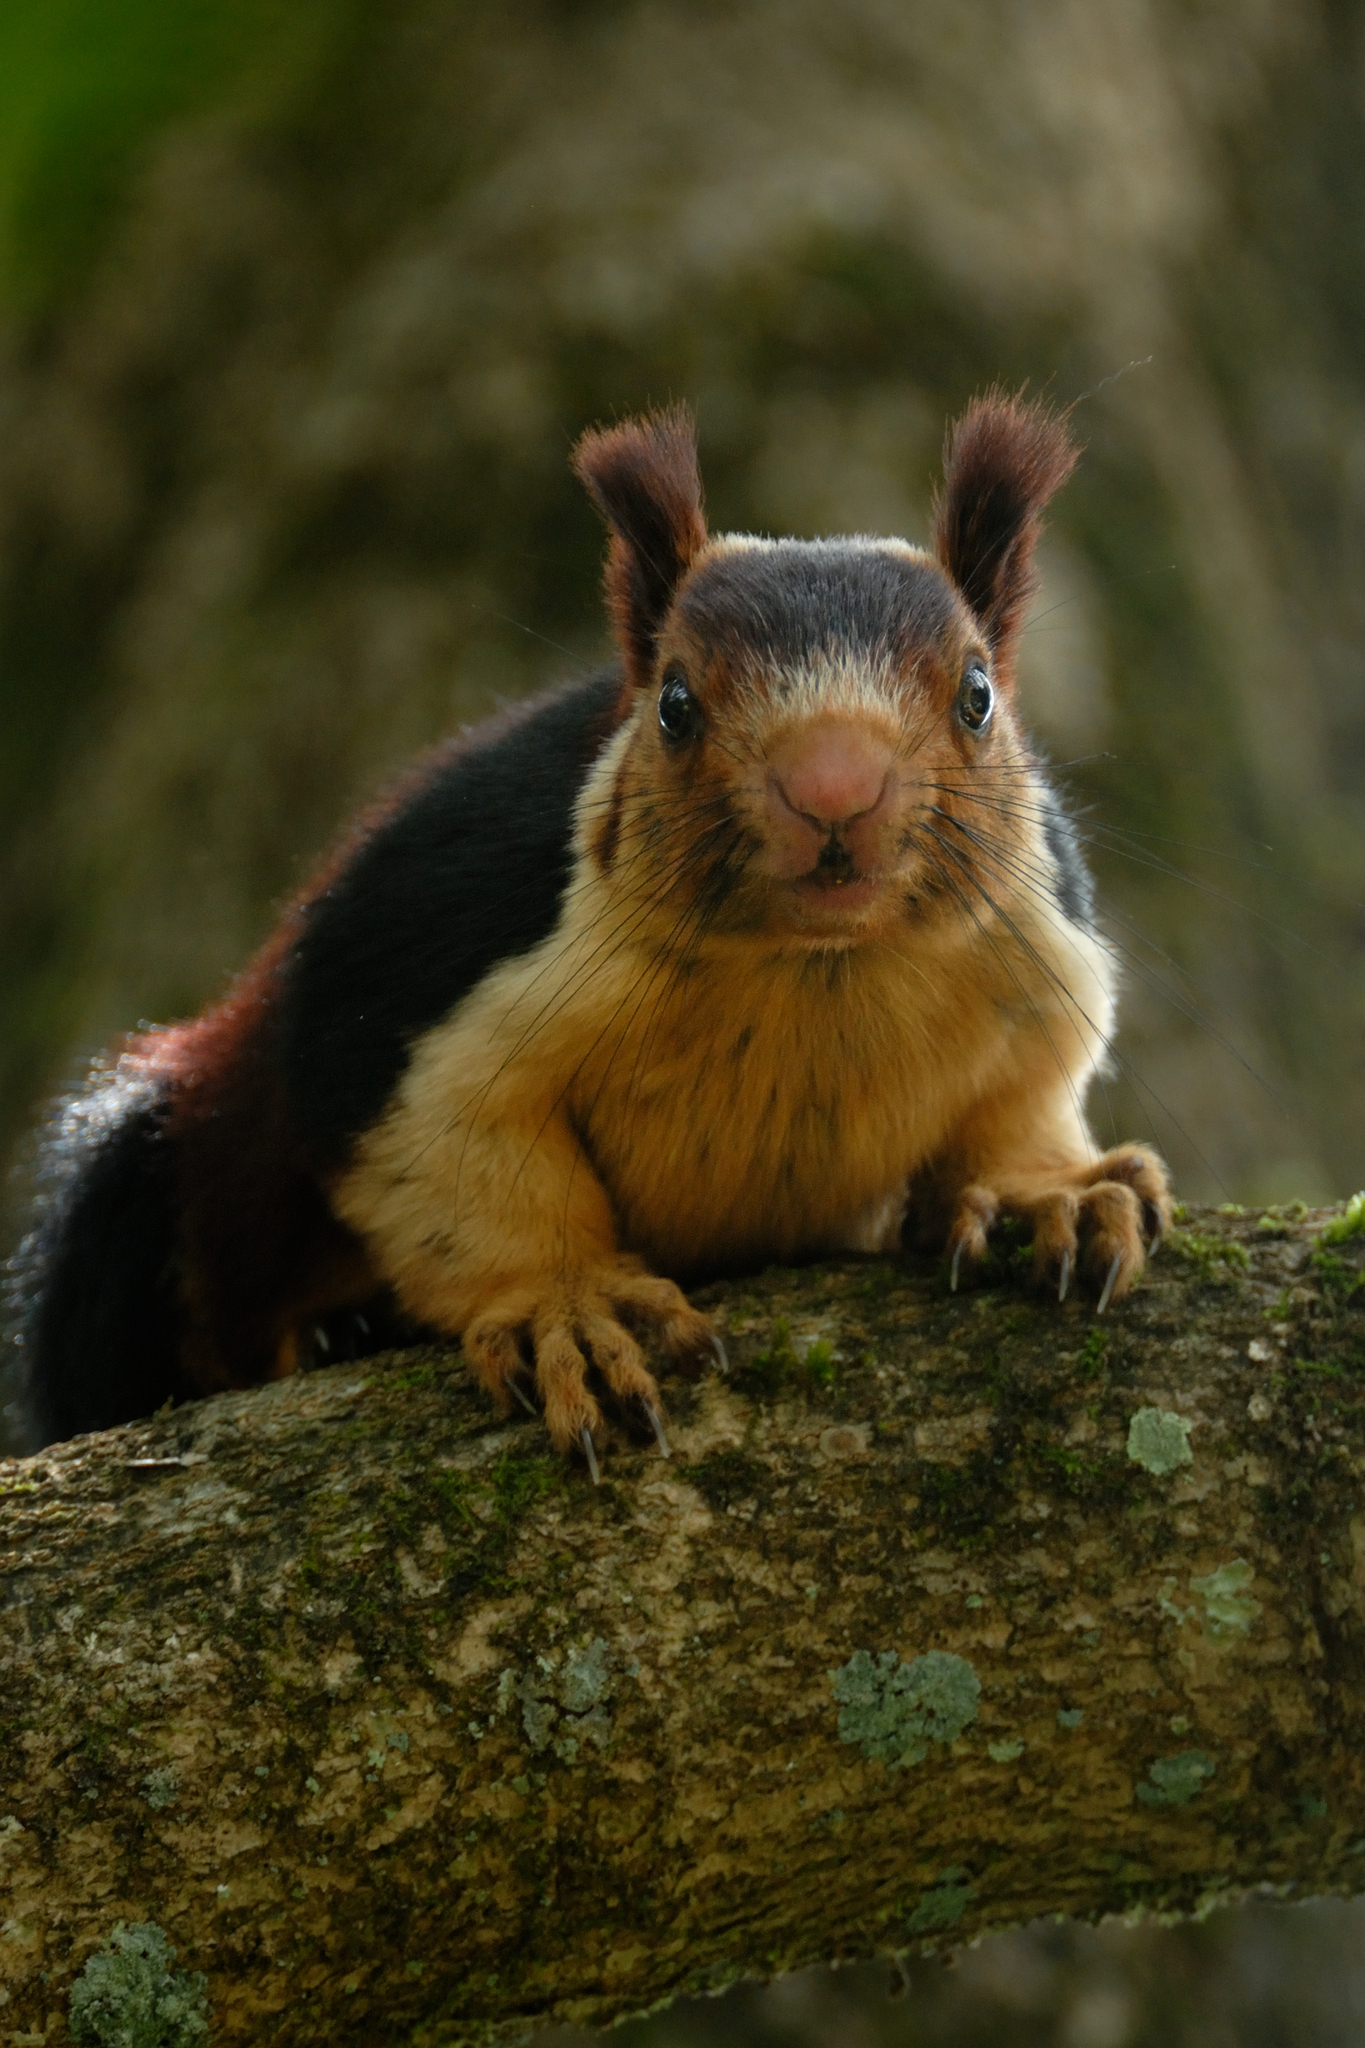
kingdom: Animalia
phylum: Chordata
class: Mammalia
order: Rodentia
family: Sciuridae
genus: Ratufa
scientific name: Ratufa indica
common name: Indian giant squirrel
